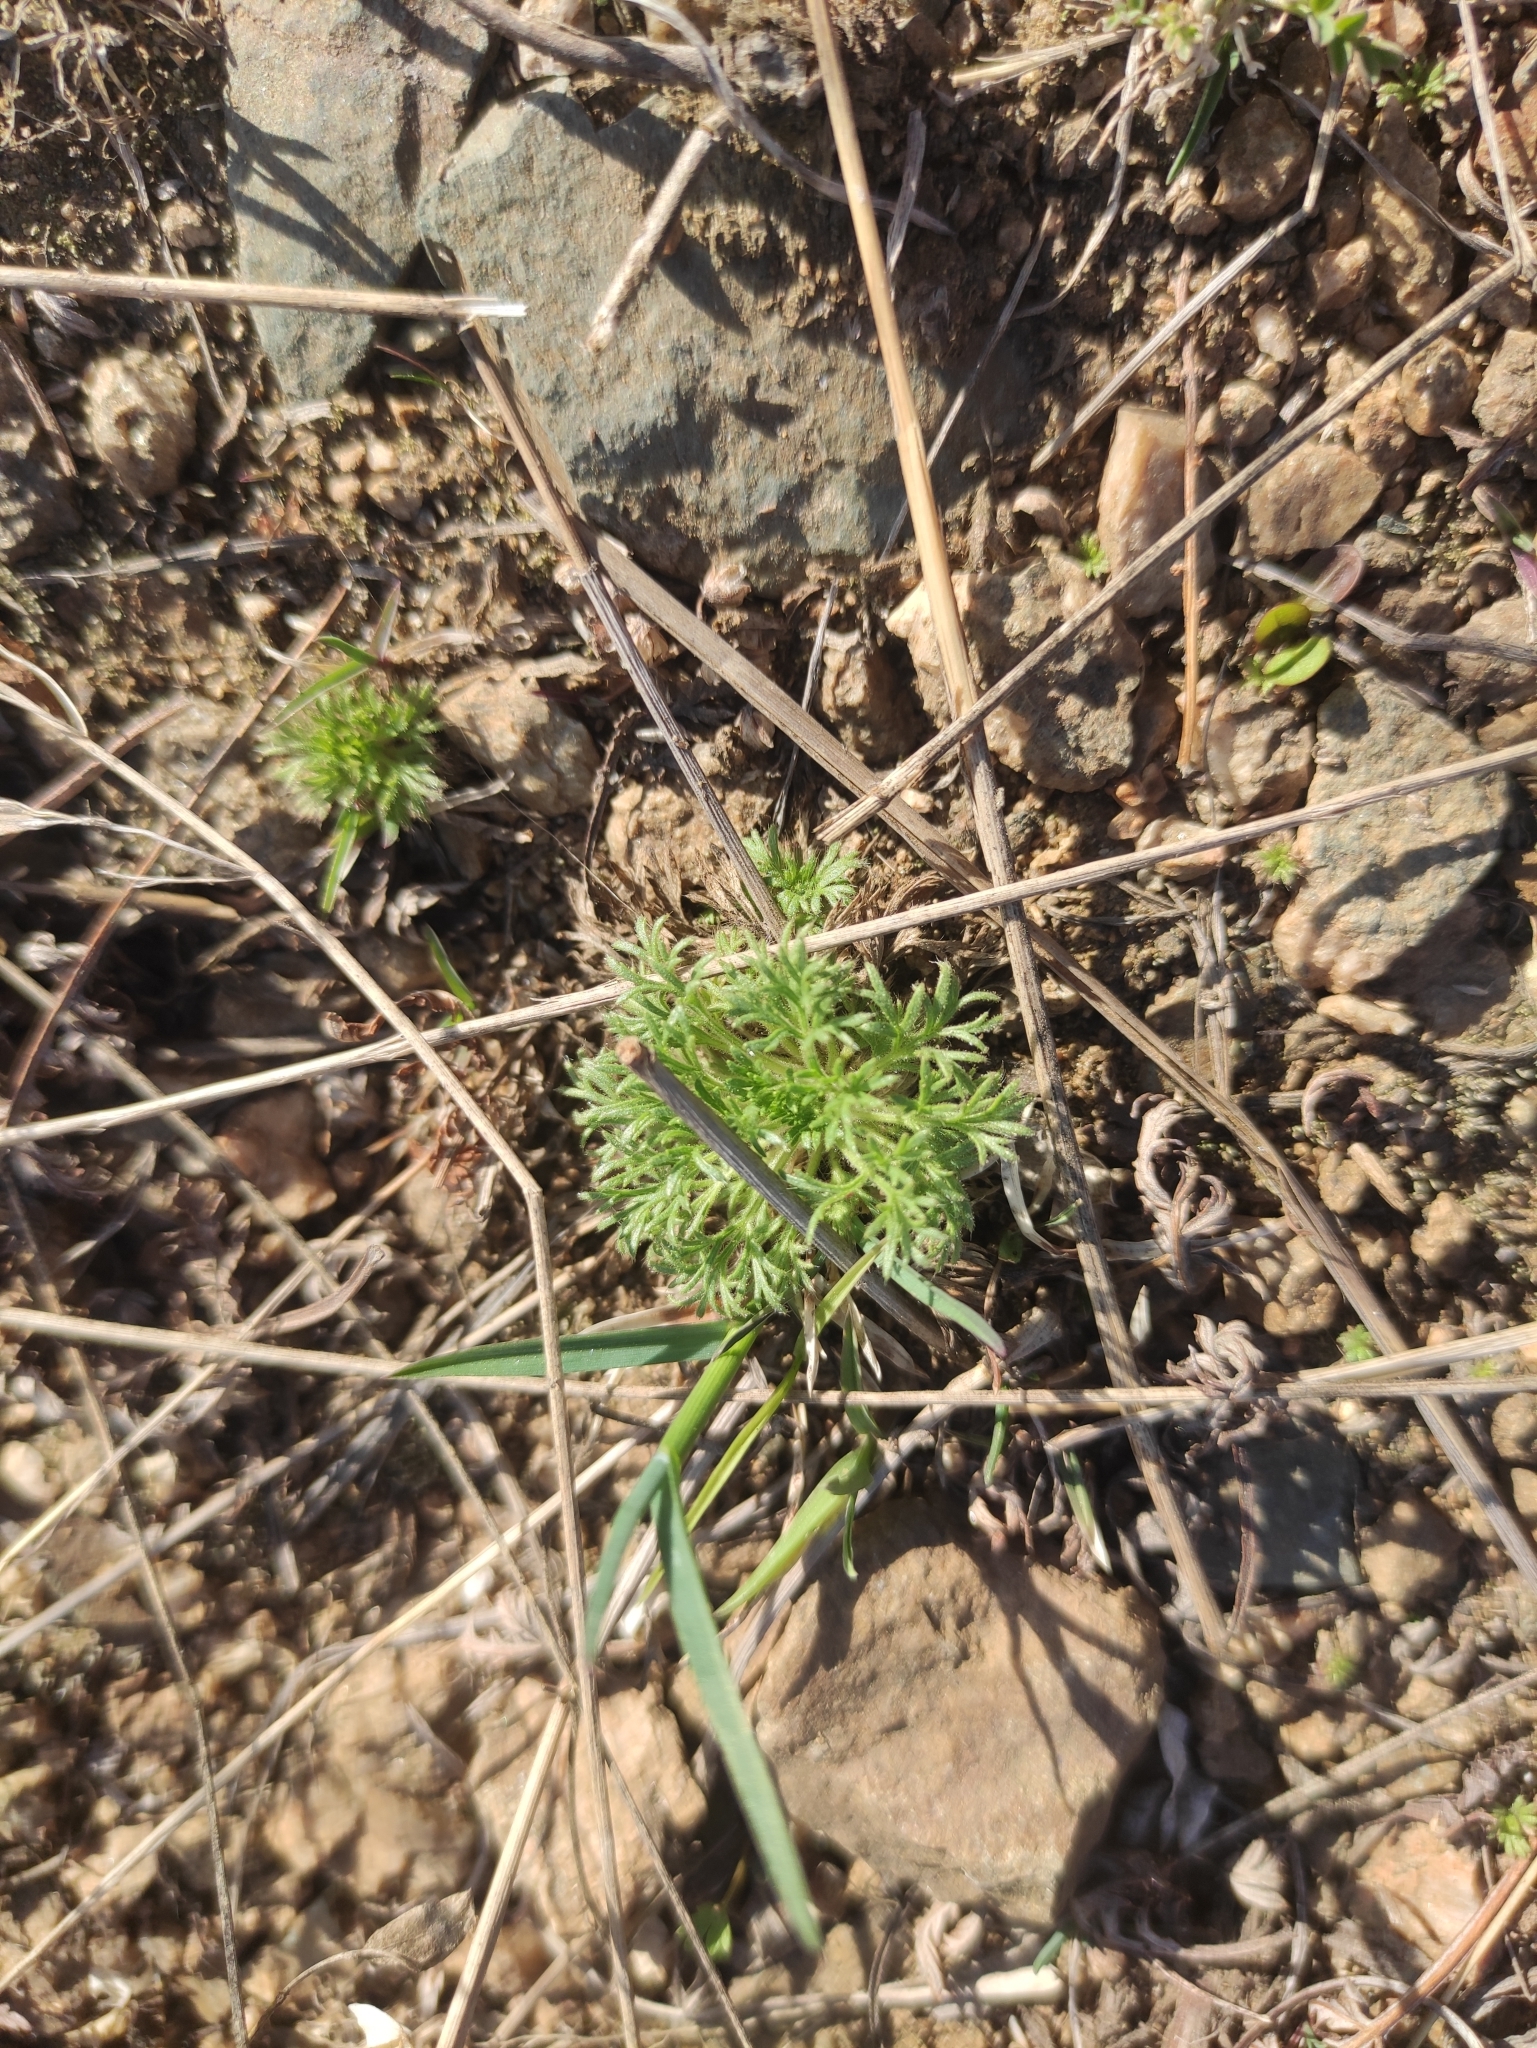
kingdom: Plantae
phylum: Tracheophyta
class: Magnoliopsida
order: Rosales
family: Rosaceae
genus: Chamaerhodos
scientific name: Chamaerhodos erecta
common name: American chamaerhodos
